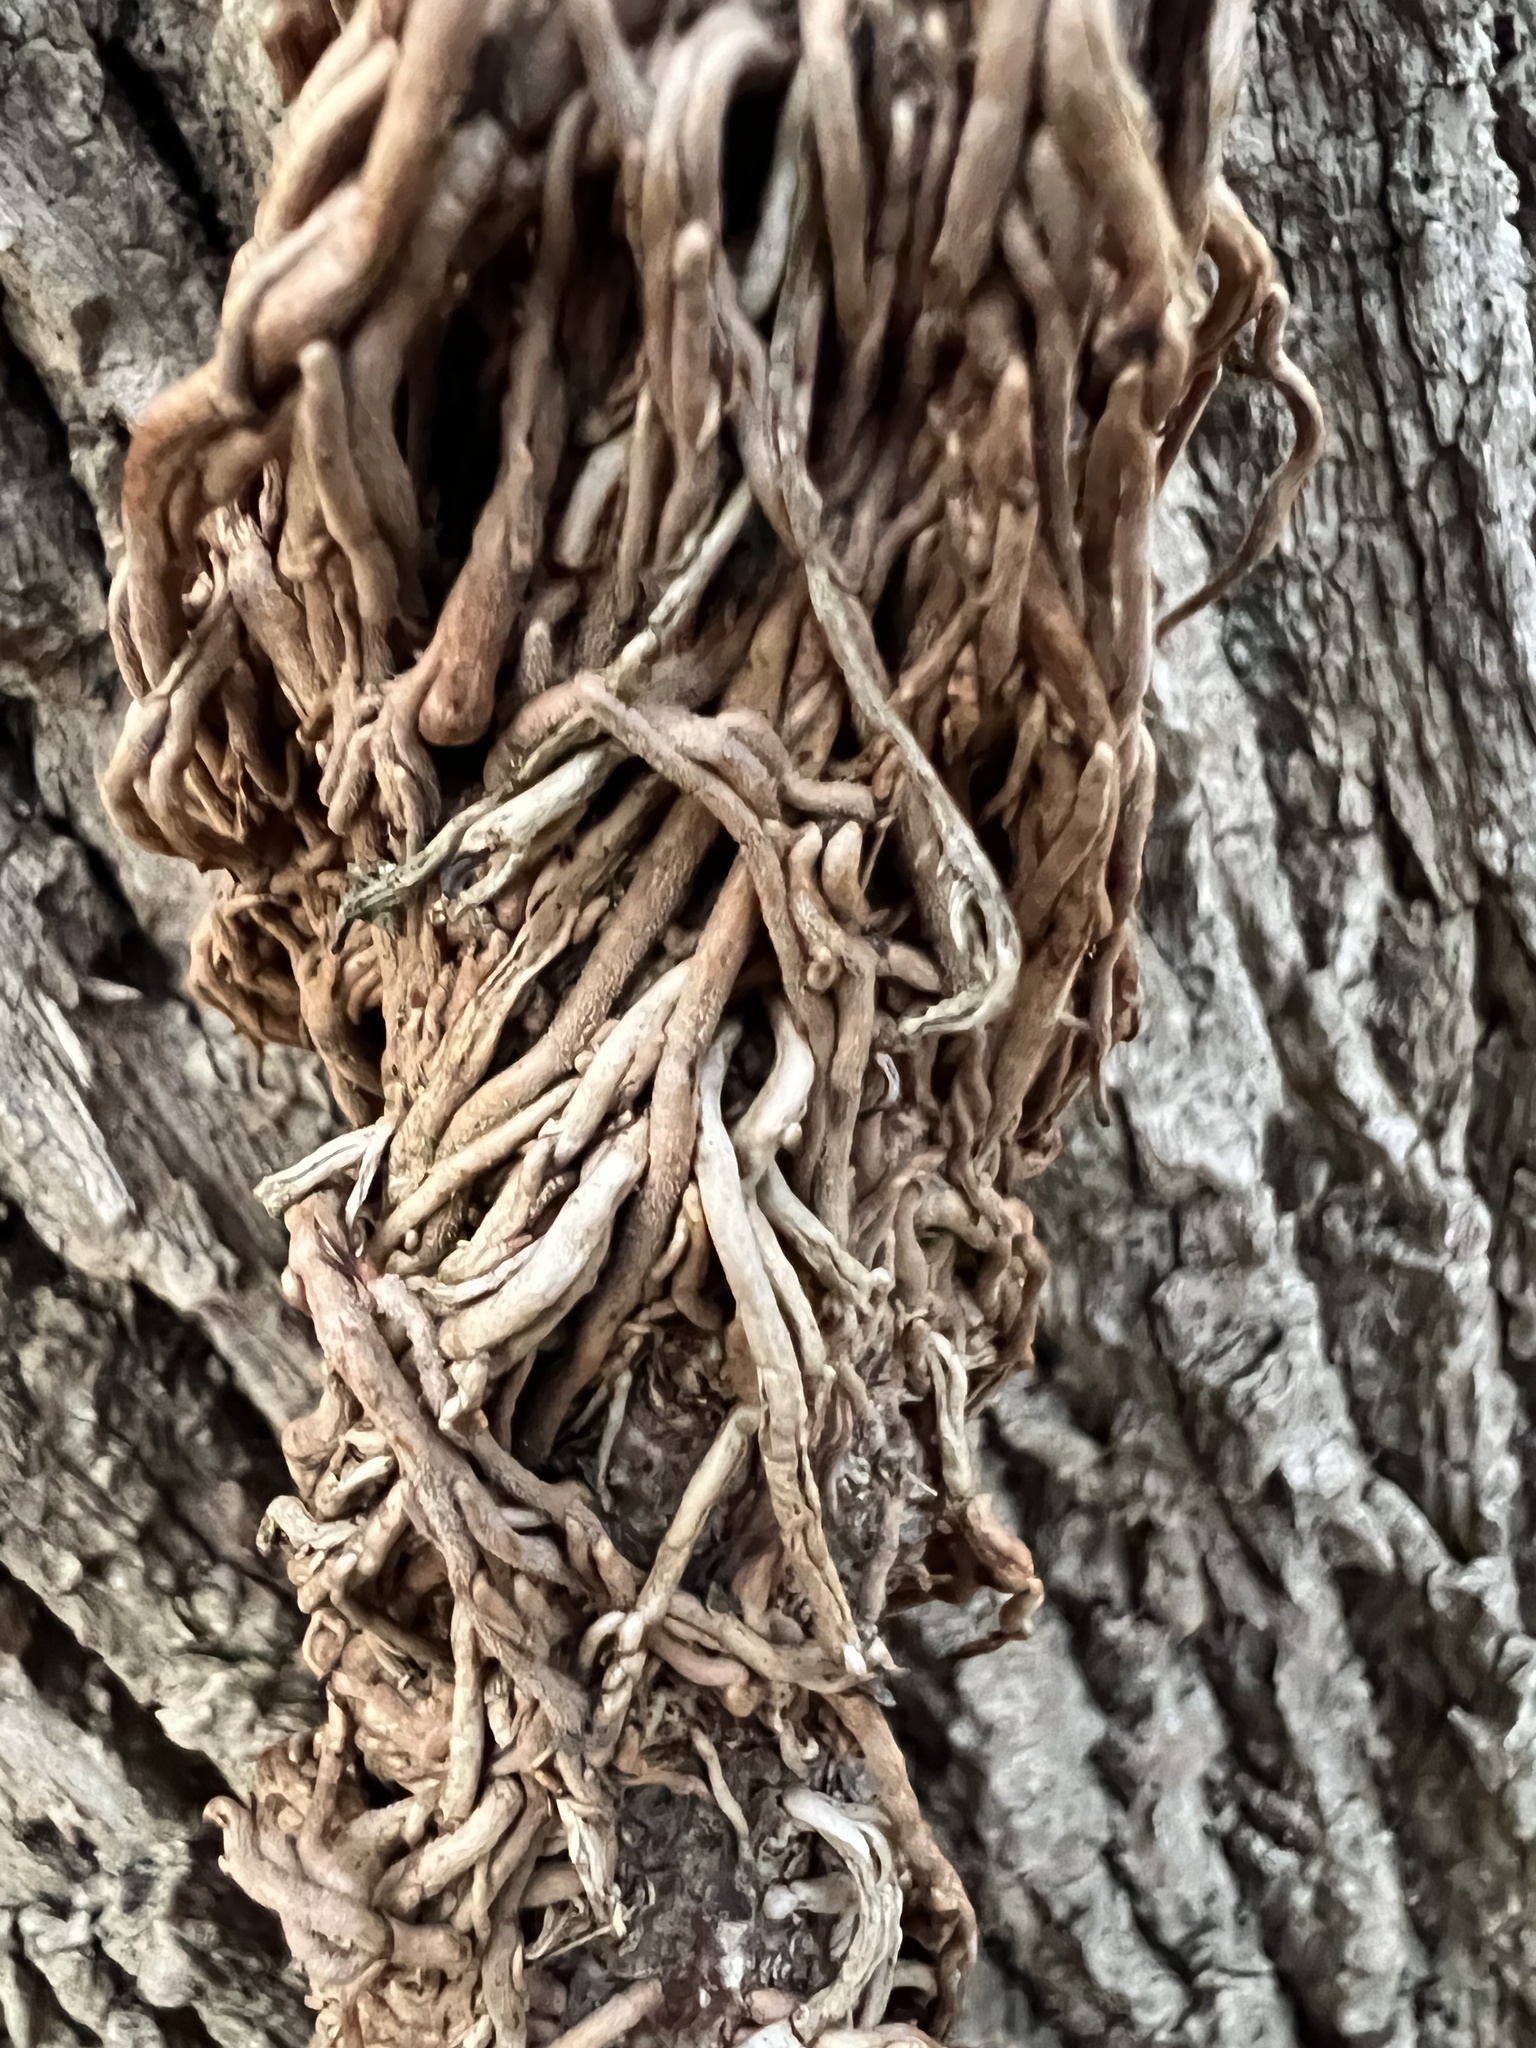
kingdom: Plantae
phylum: Tracheophyta
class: Magnoliopsida
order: Sapindales
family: Anacardiaceae
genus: Toxicodendron
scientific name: Toxicodendron radicans
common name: Poison ivy
